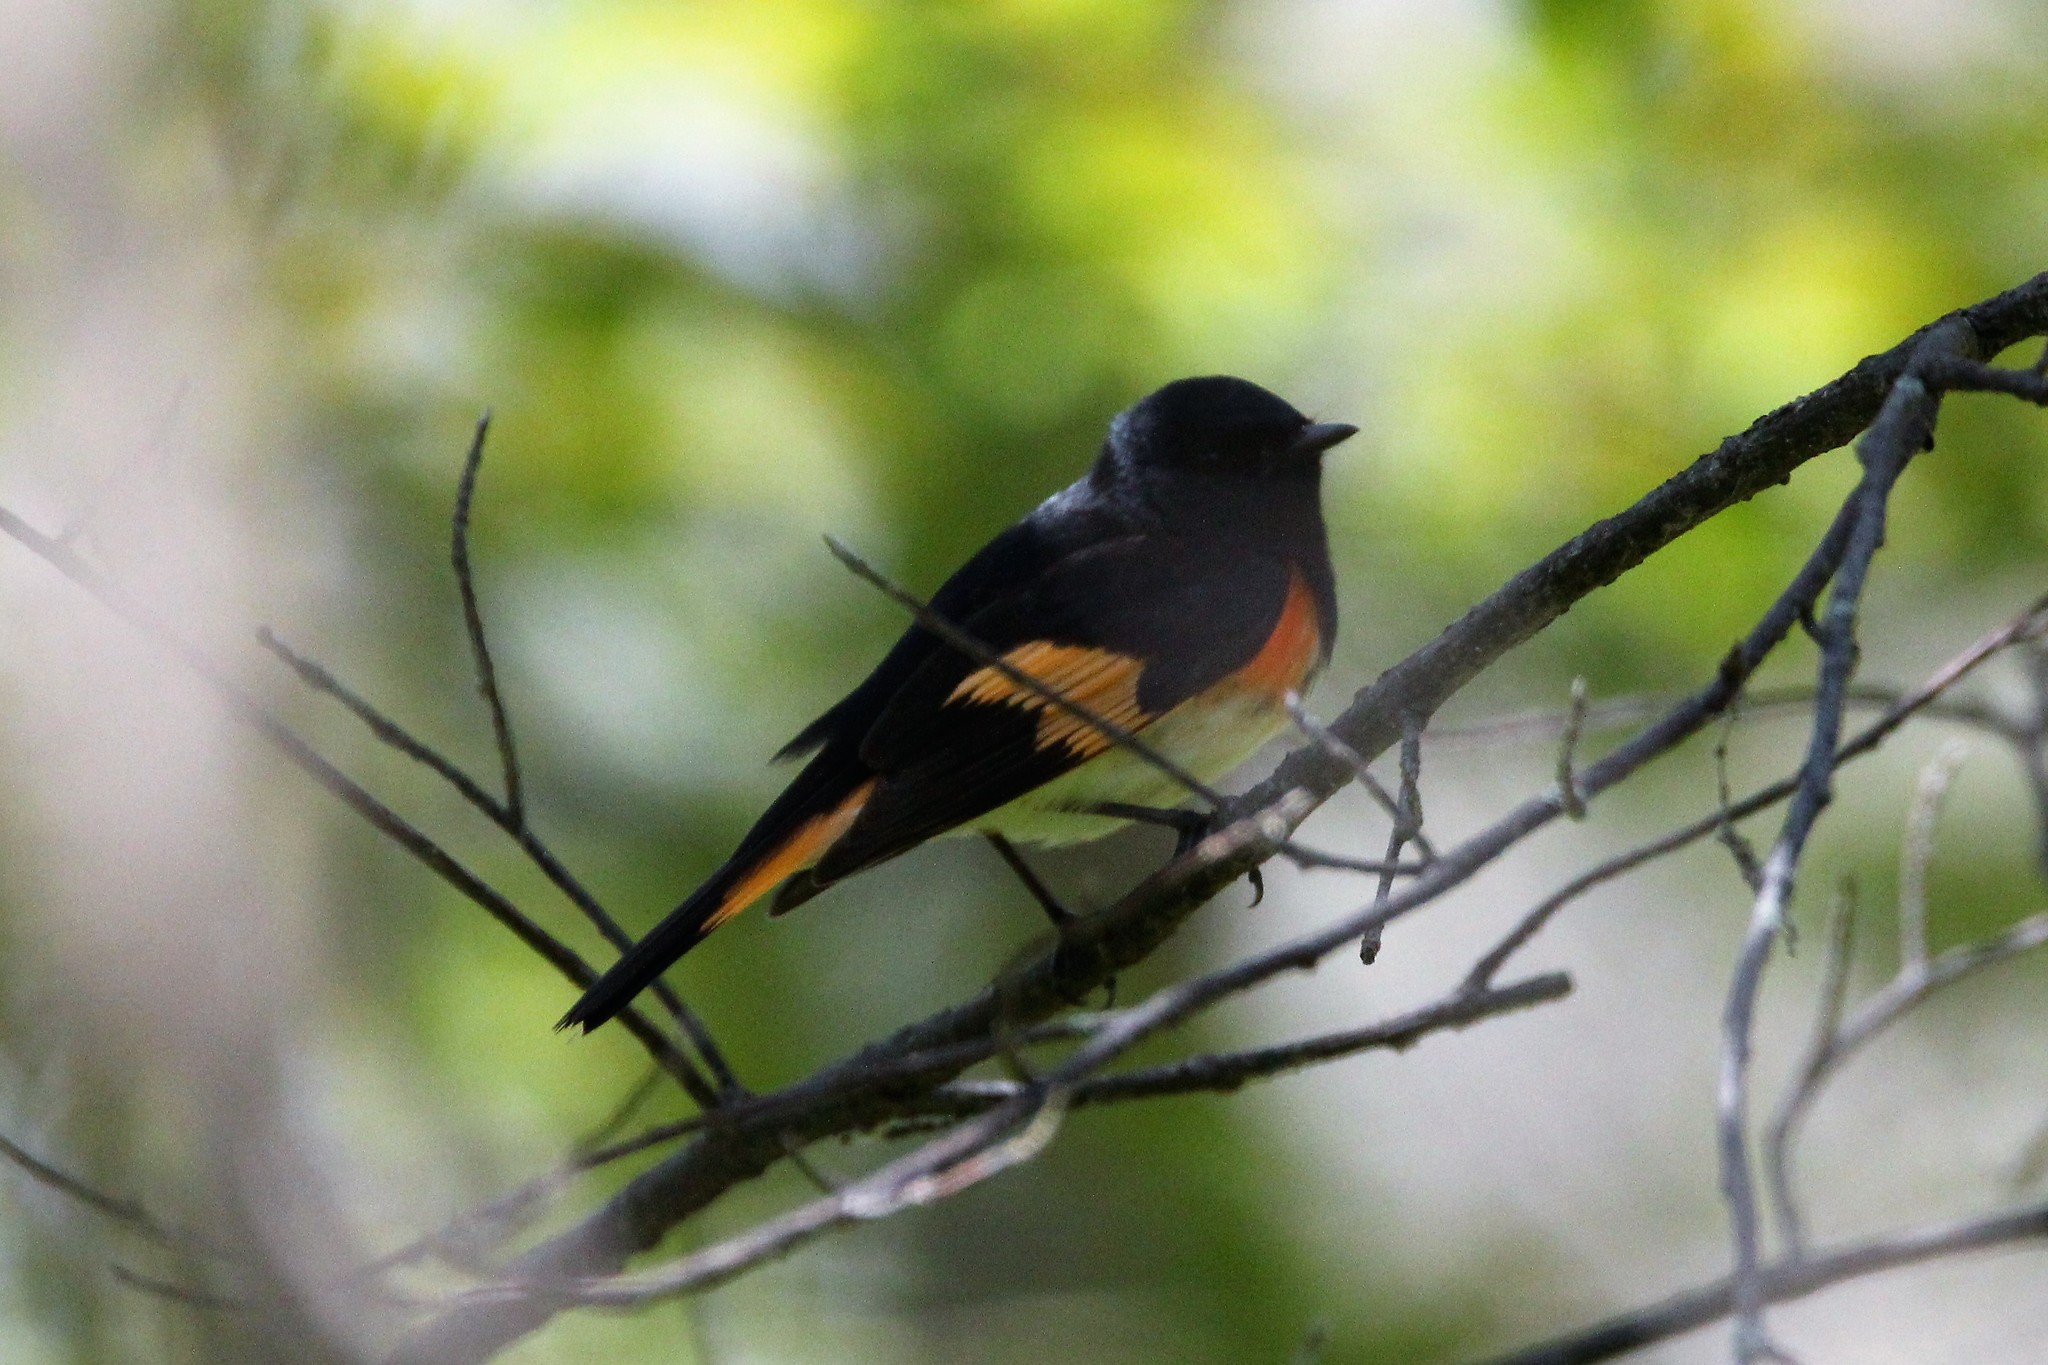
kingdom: Animalia
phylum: Chordata
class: Aves
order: Passeriformes
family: Parulidae
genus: Setophaga
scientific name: Setophaga ruticilla
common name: American redstart
